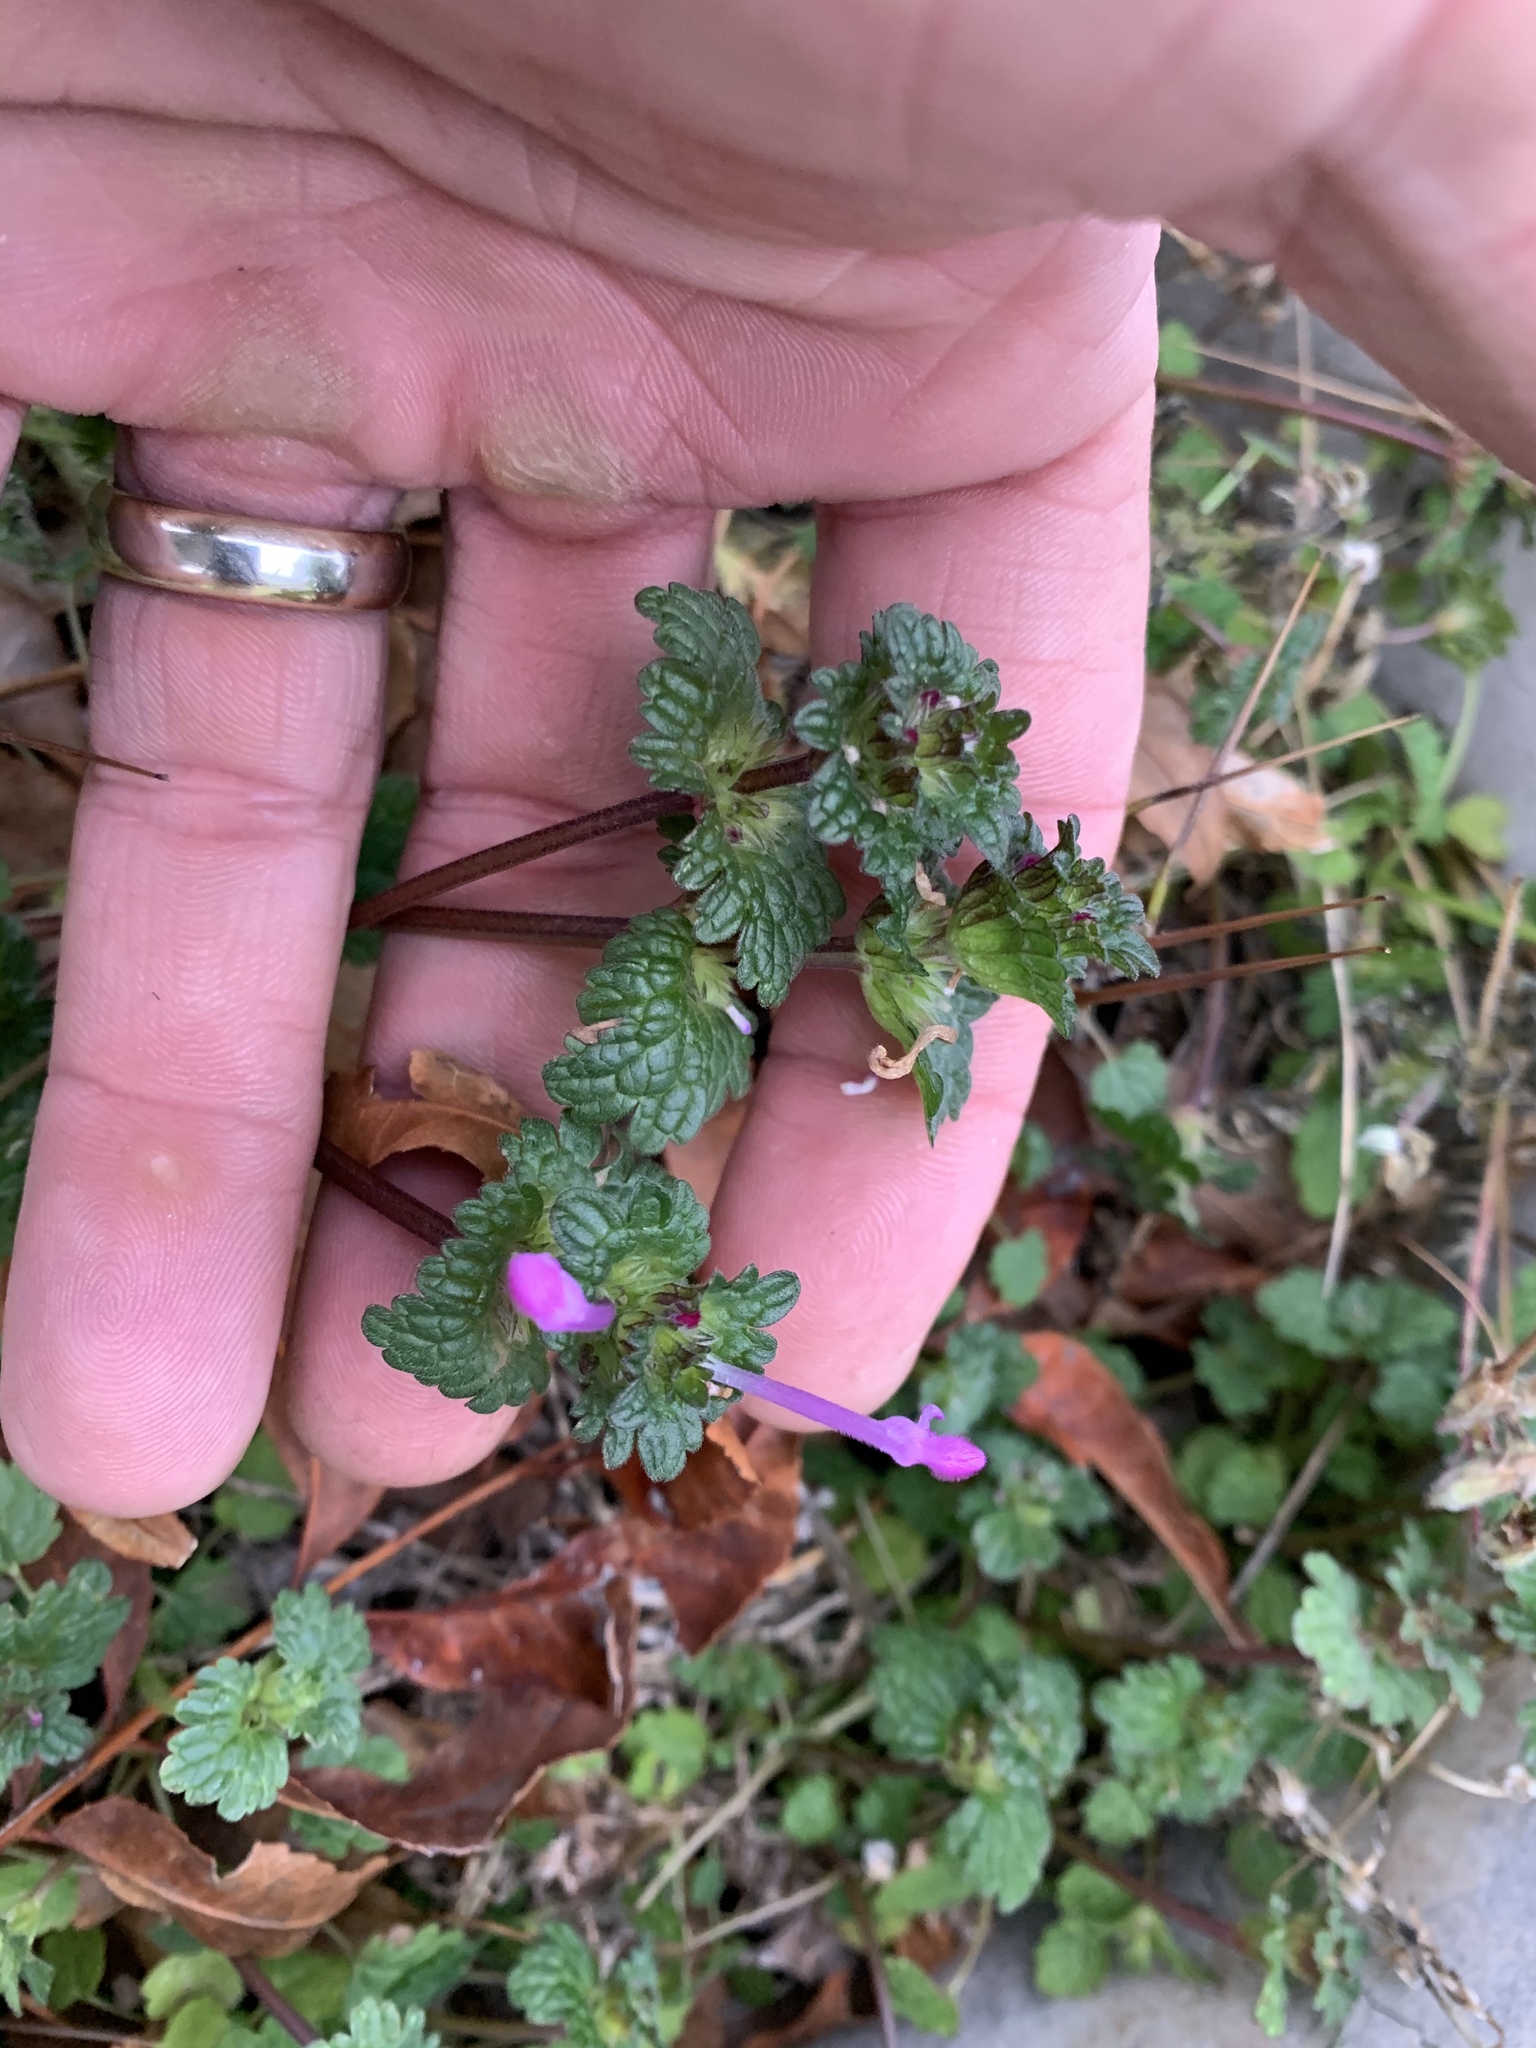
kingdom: Plantae
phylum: Tracheophyta
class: Magnoliopsida
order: Lamiales
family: Lamiaceae
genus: Lamium
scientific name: Lamium amplexicaule
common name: Henbit dead-nettle
